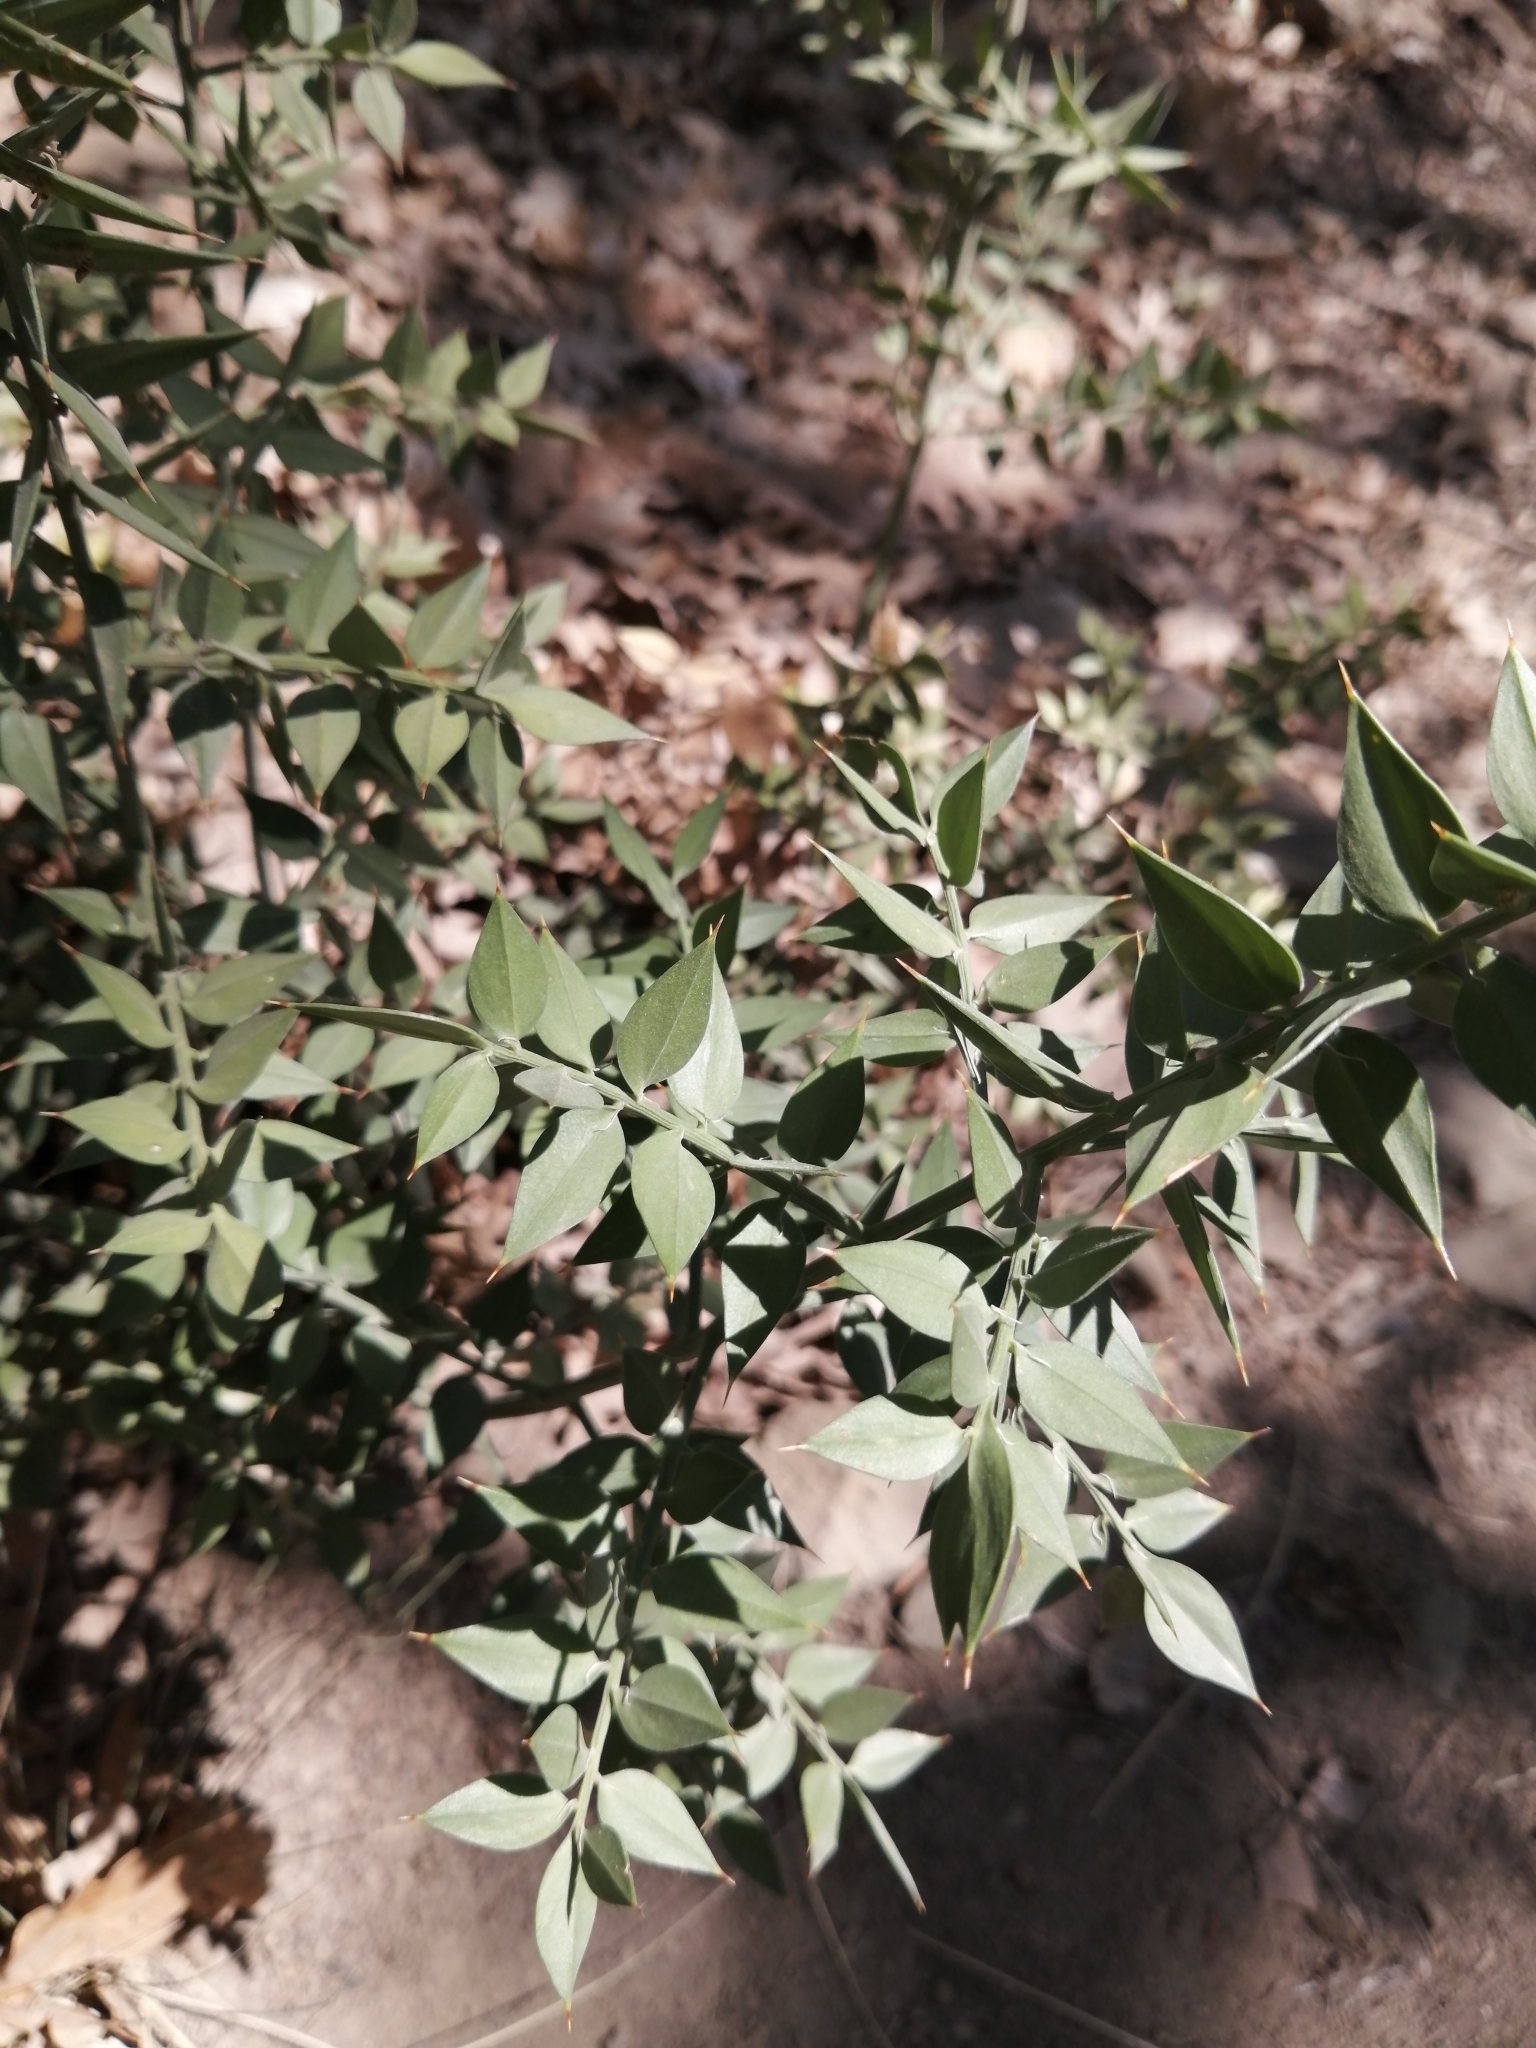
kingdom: Plantae
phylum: Tracheophyta
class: Liliopsida
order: Asparagales
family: Asparagaceae
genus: Ruscus
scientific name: Ruscus aculeatus
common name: Butcher's-broom
